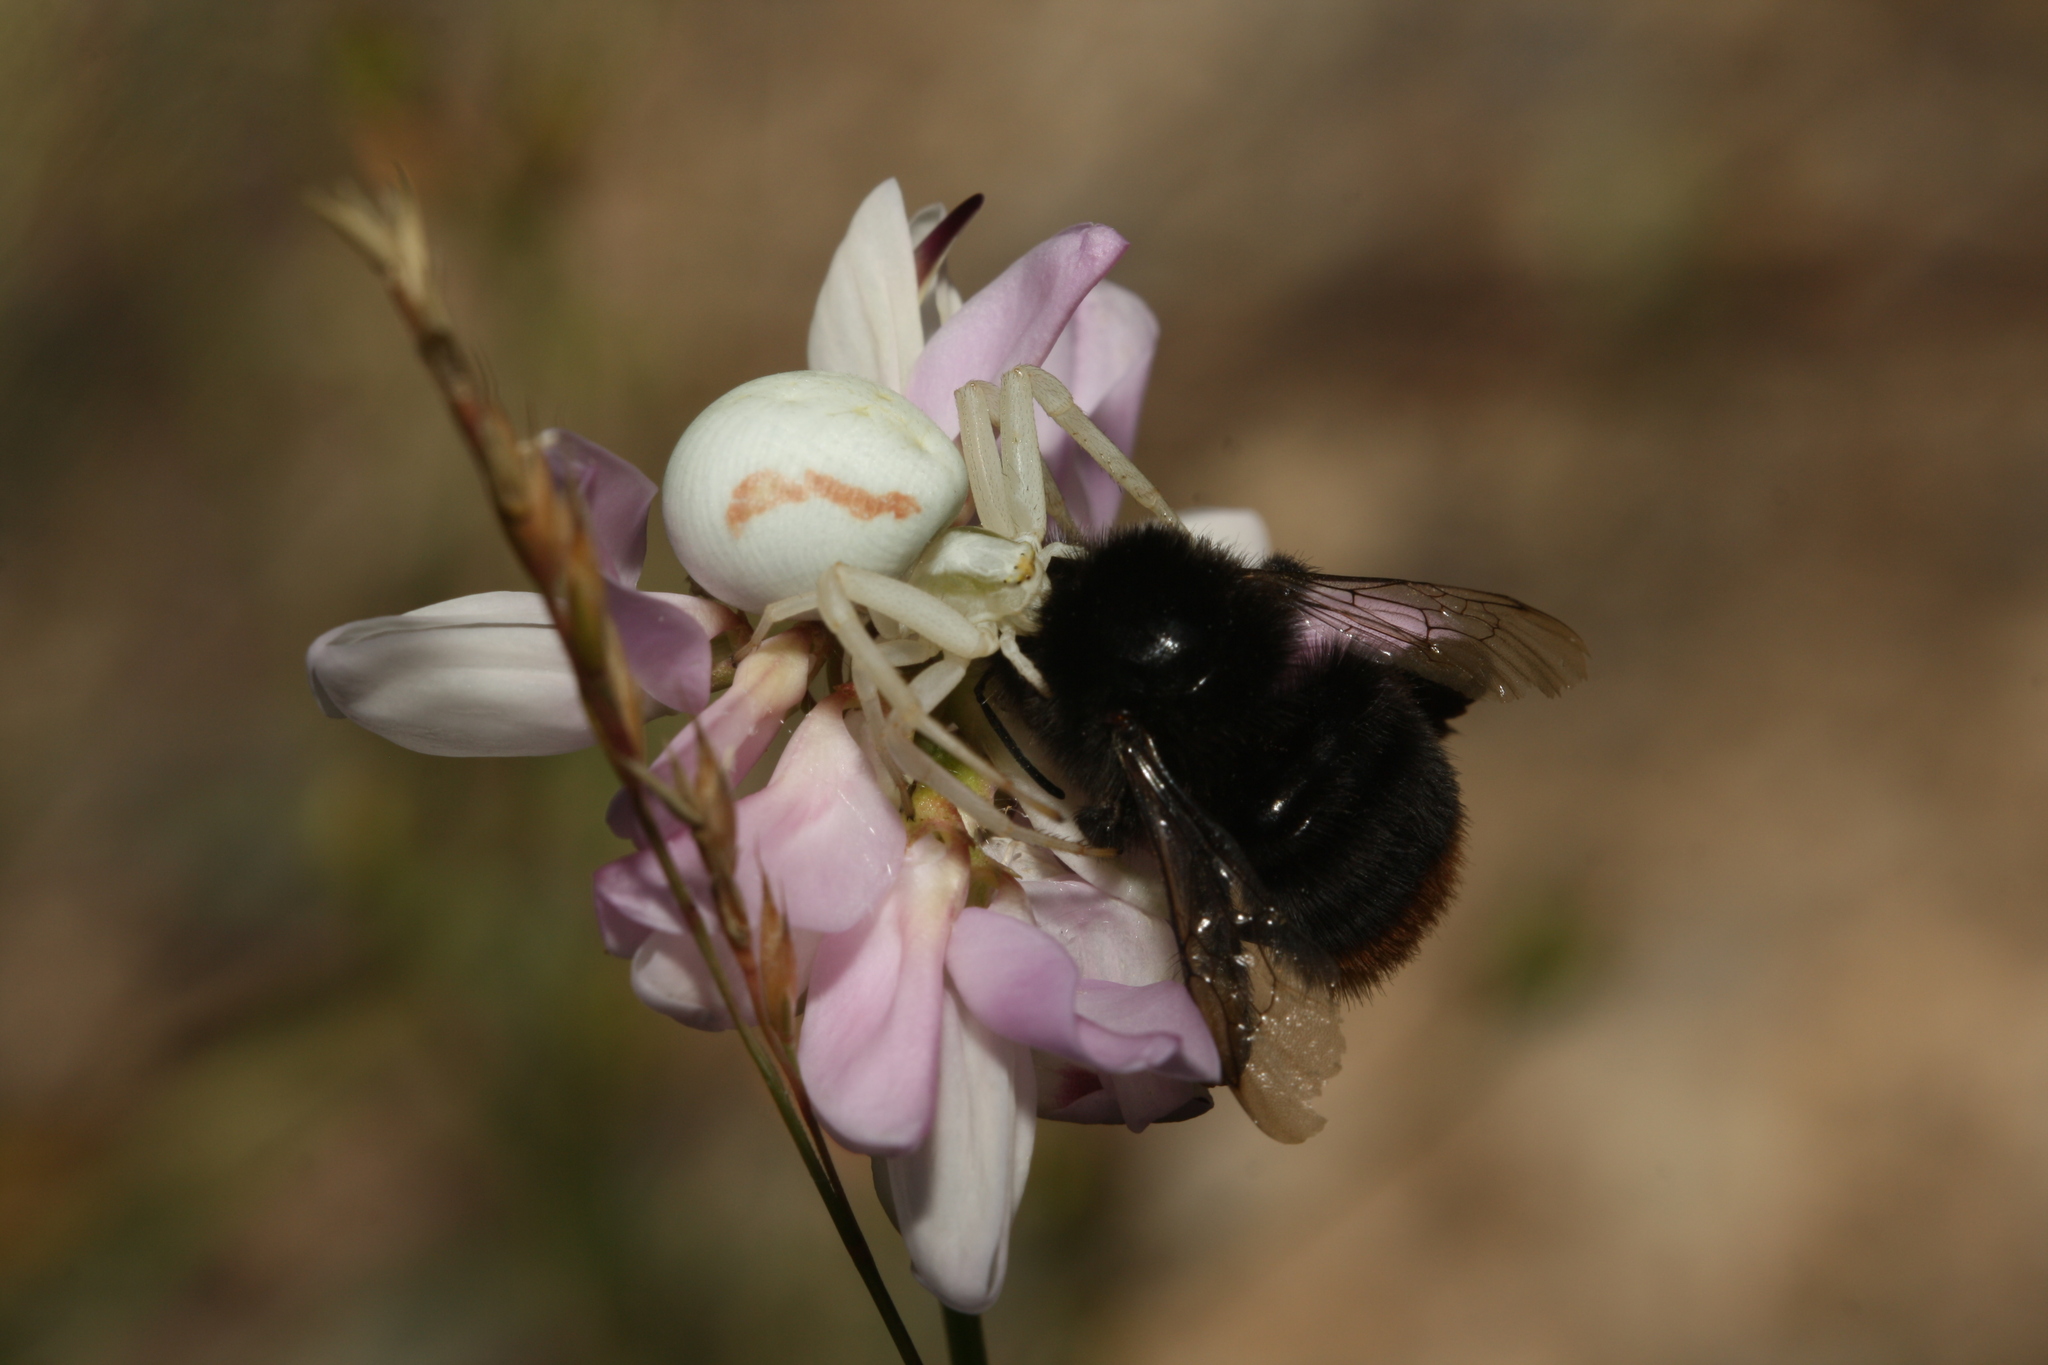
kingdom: Animalia
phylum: Arthropoda
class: Arachnida
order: Araneae
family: Thomisidae
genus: Misumena
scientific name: Misumena vatia
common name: Goldenrod crab spider
